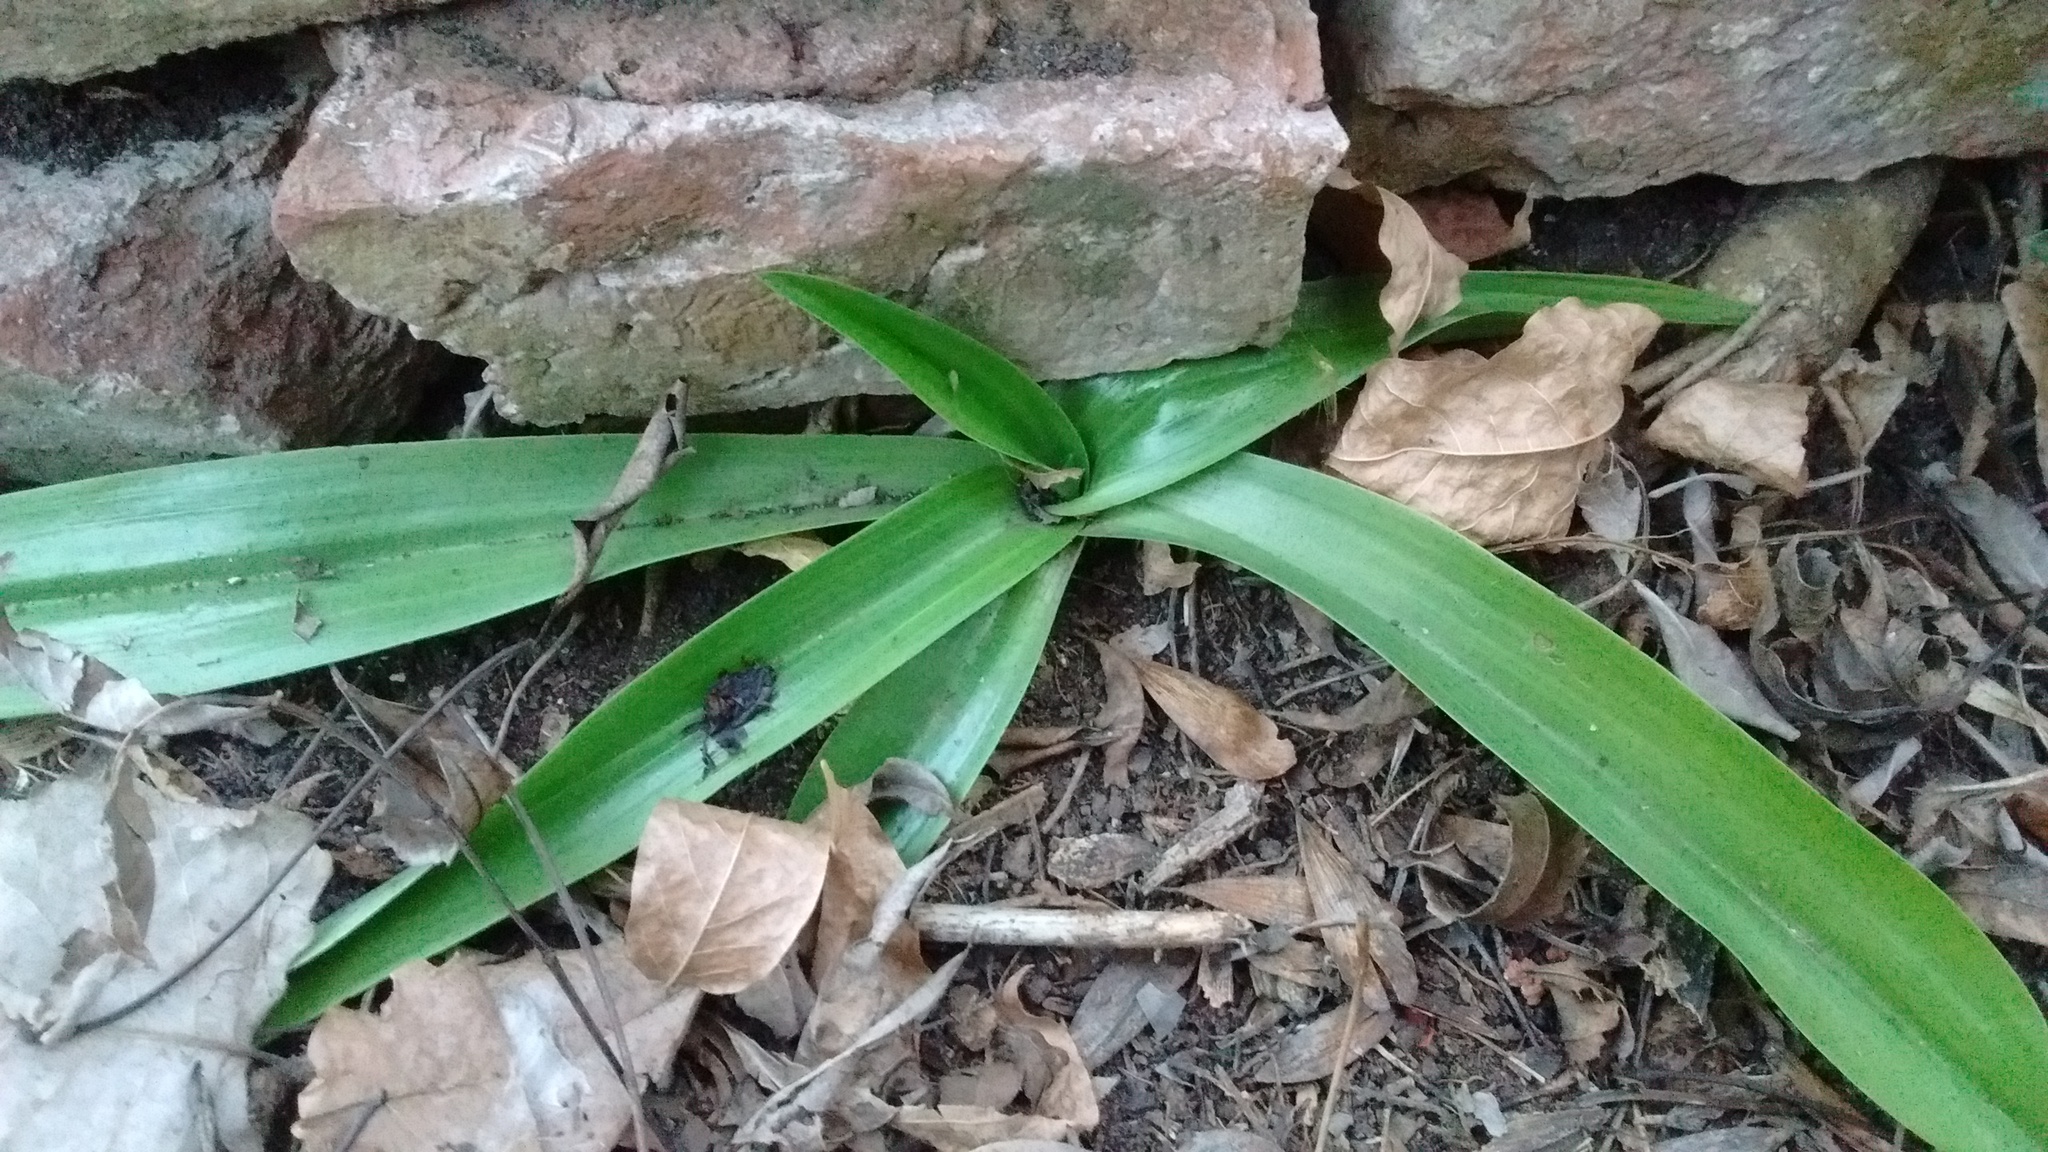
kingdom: Plantae
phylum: Tracheophyta
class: Liliopsida
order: Asparagales
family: Orchidaceae
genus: Chloraea
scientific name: Chloraea membranacea
